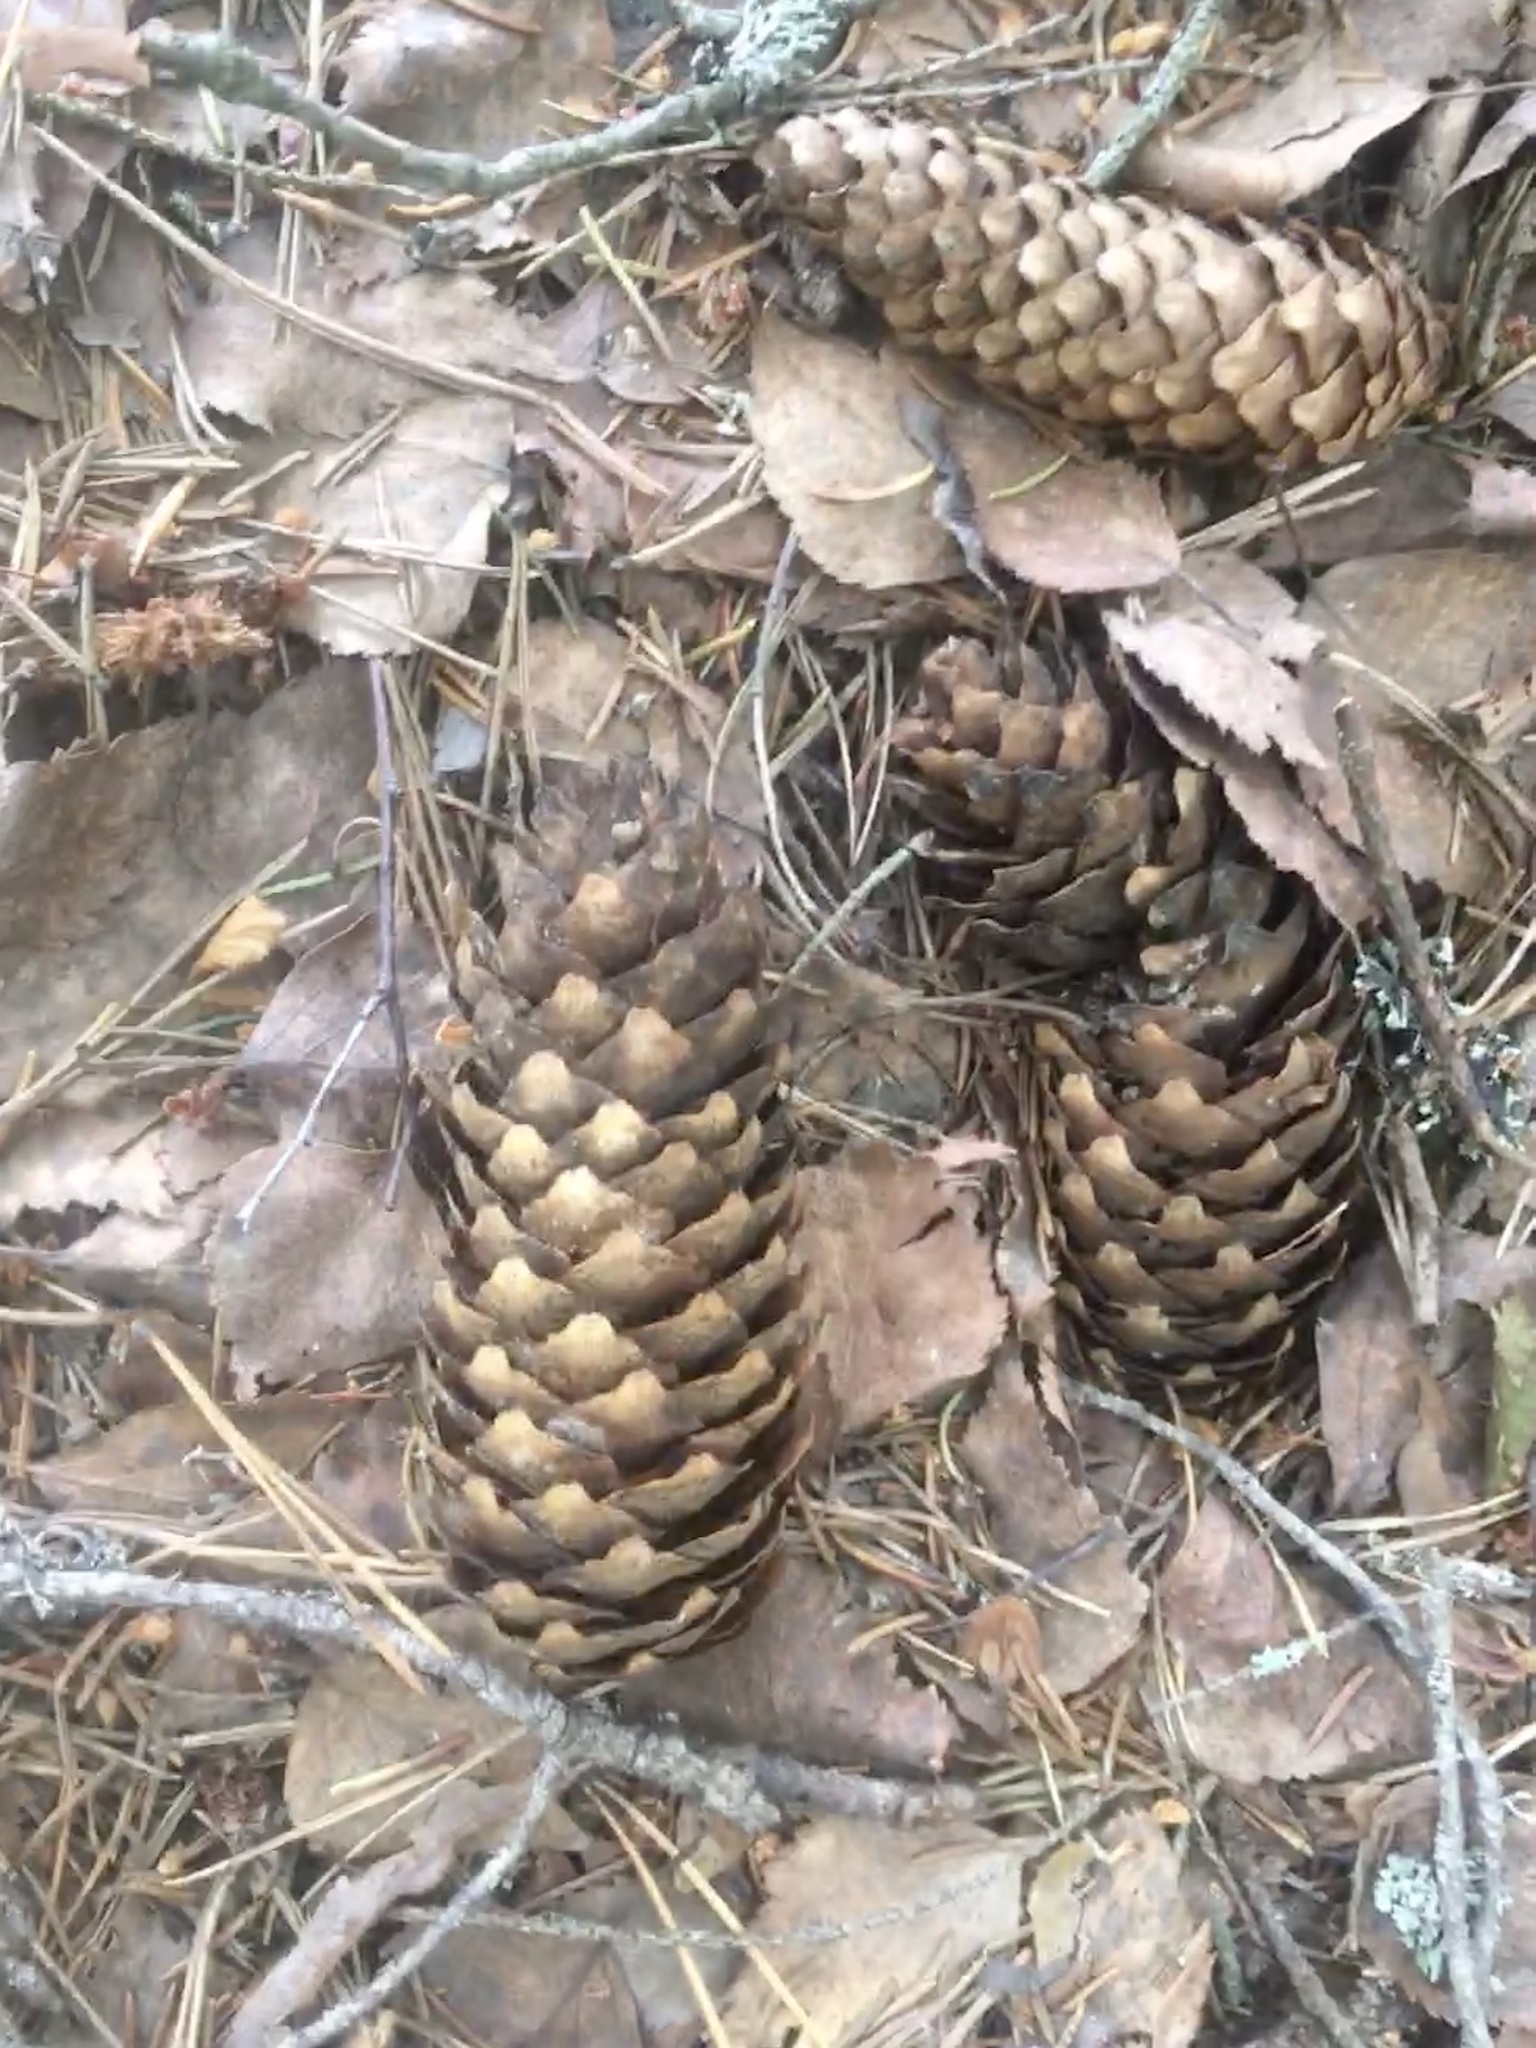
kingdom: Plantae
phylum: Tracheophyta
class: Pinopsida
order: Pinales
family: Pinaceae
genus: Picea
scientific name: Picea abies
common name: Norway spruce
